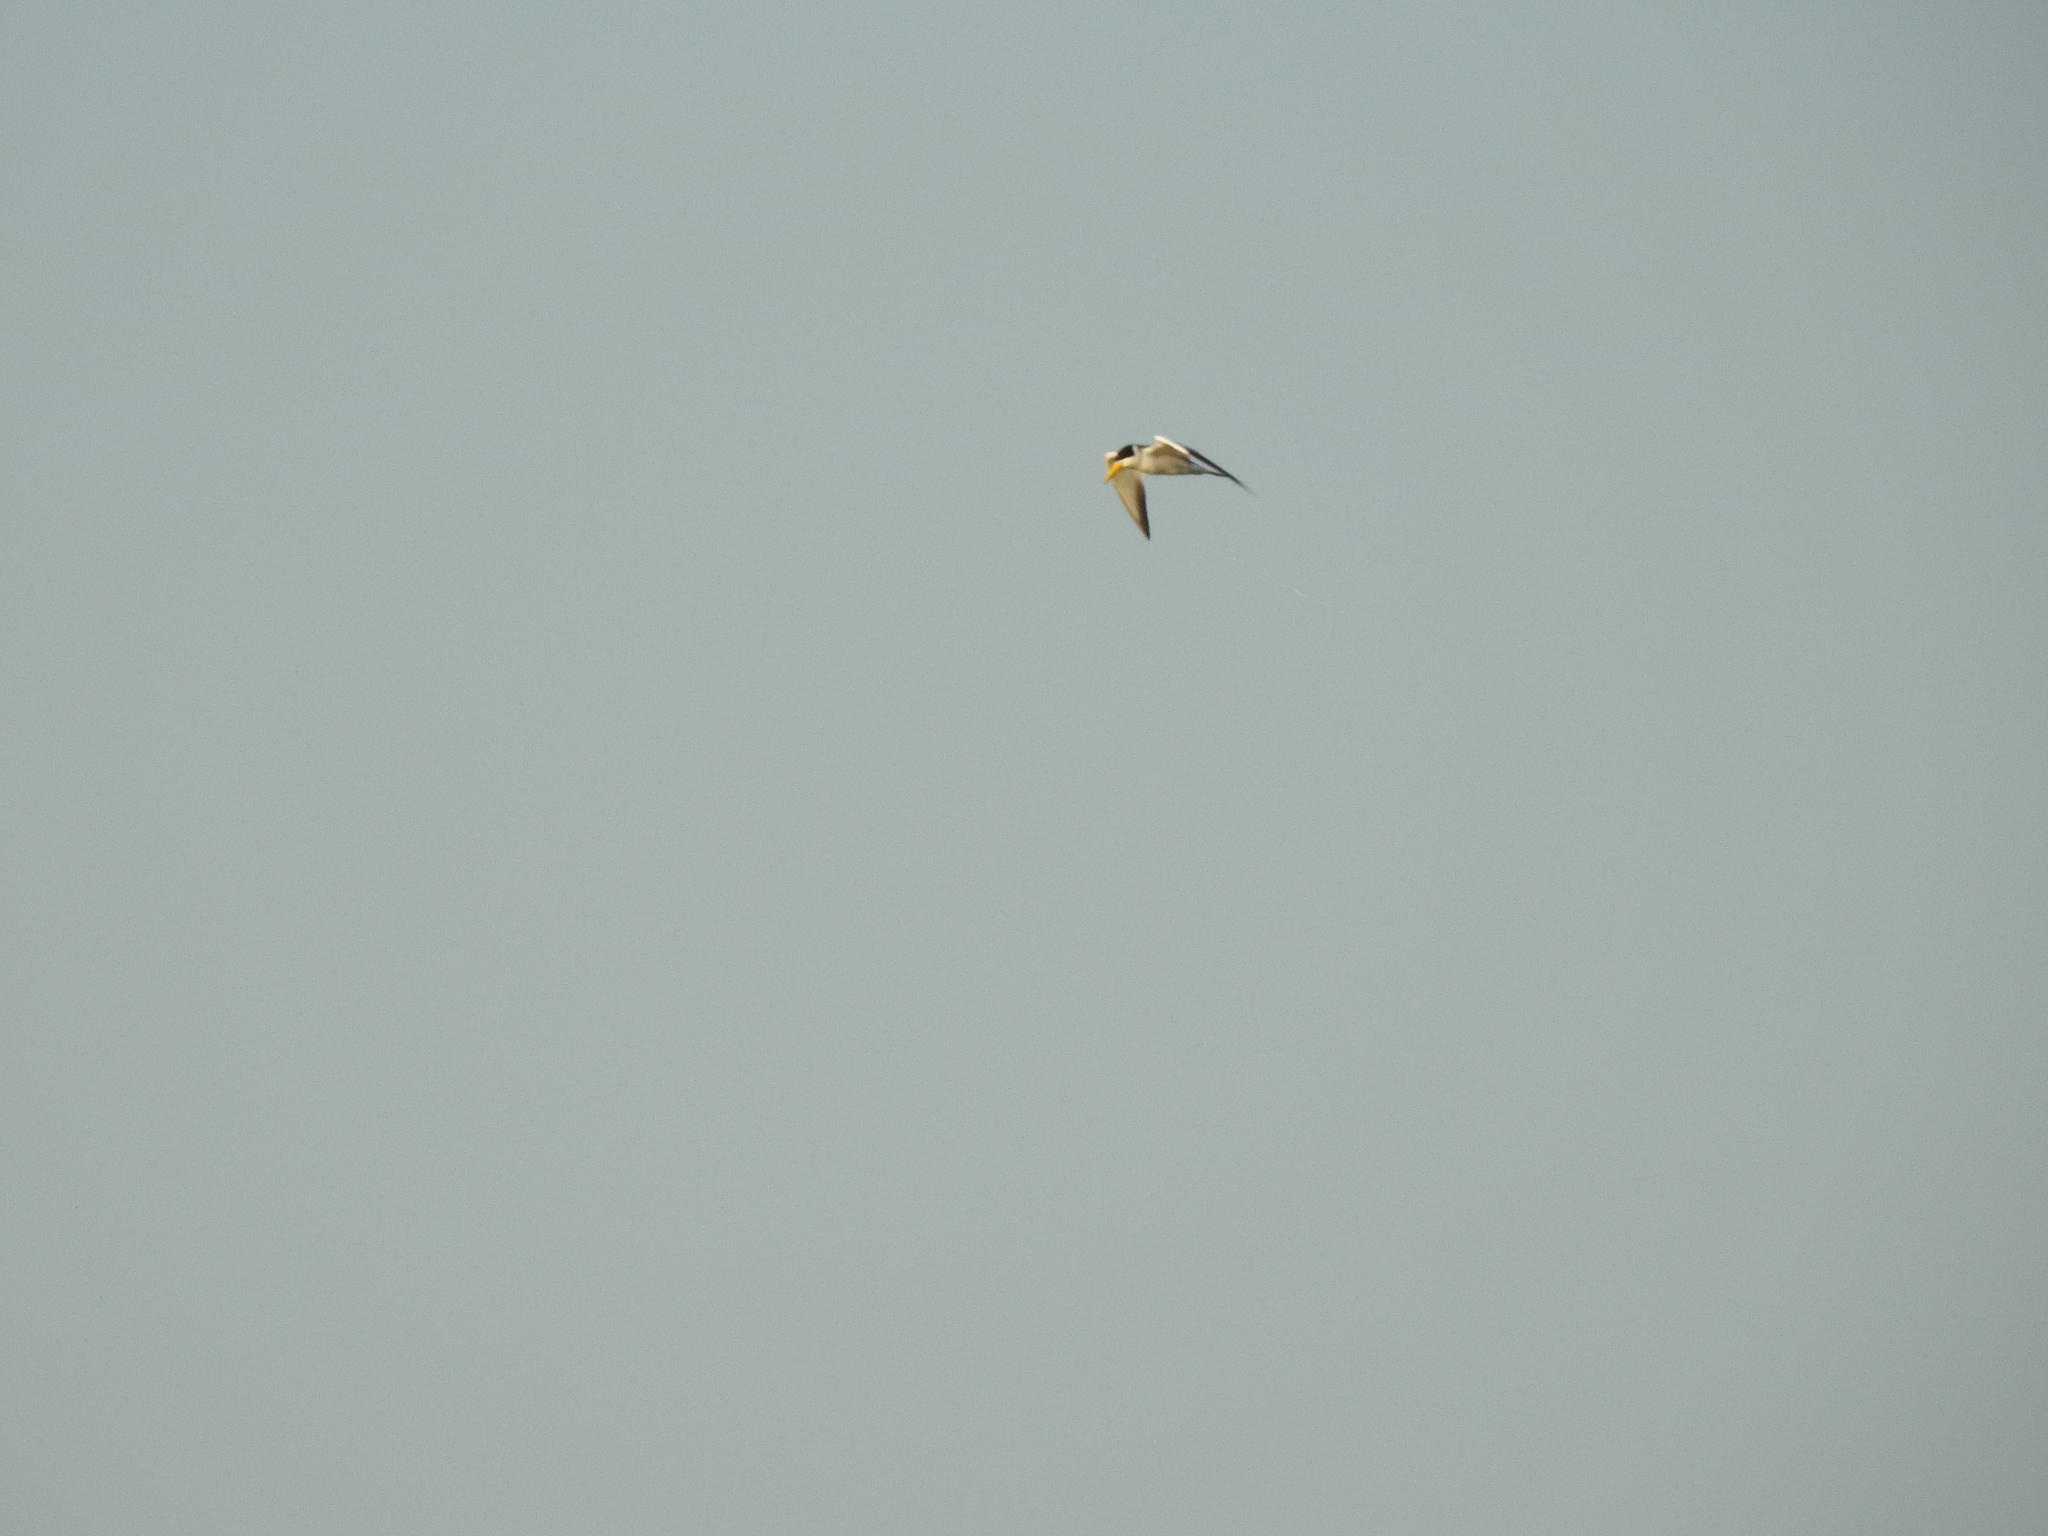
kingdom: Animalia
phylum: Chordata
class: Aves
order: Charadriiformes
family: Laridae
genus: Phaetusa
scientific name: Phaetusa simplex
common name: Large-billed tern
